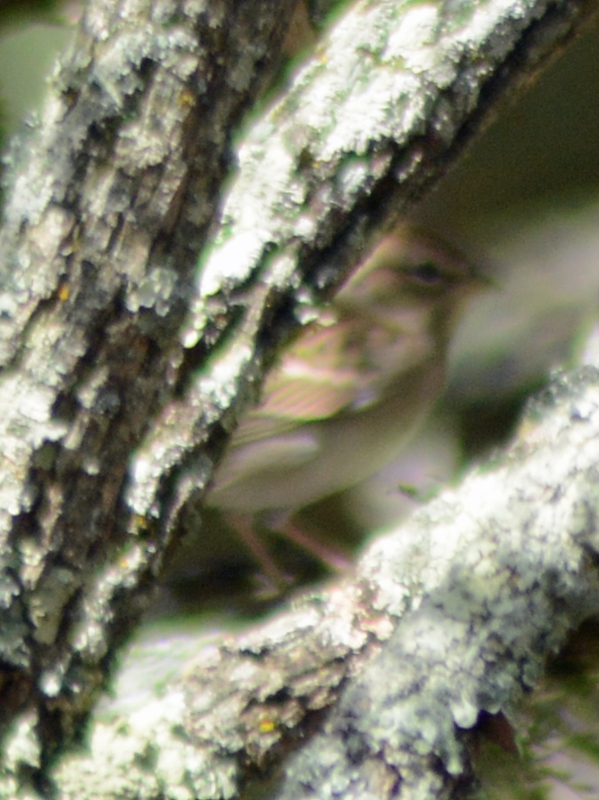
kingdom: Animalia
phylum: Chordata
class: Aves
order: Passeriformes
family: Passerellidae
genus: Spizella
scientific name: Spizella passerina
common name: Chipping sparrow
